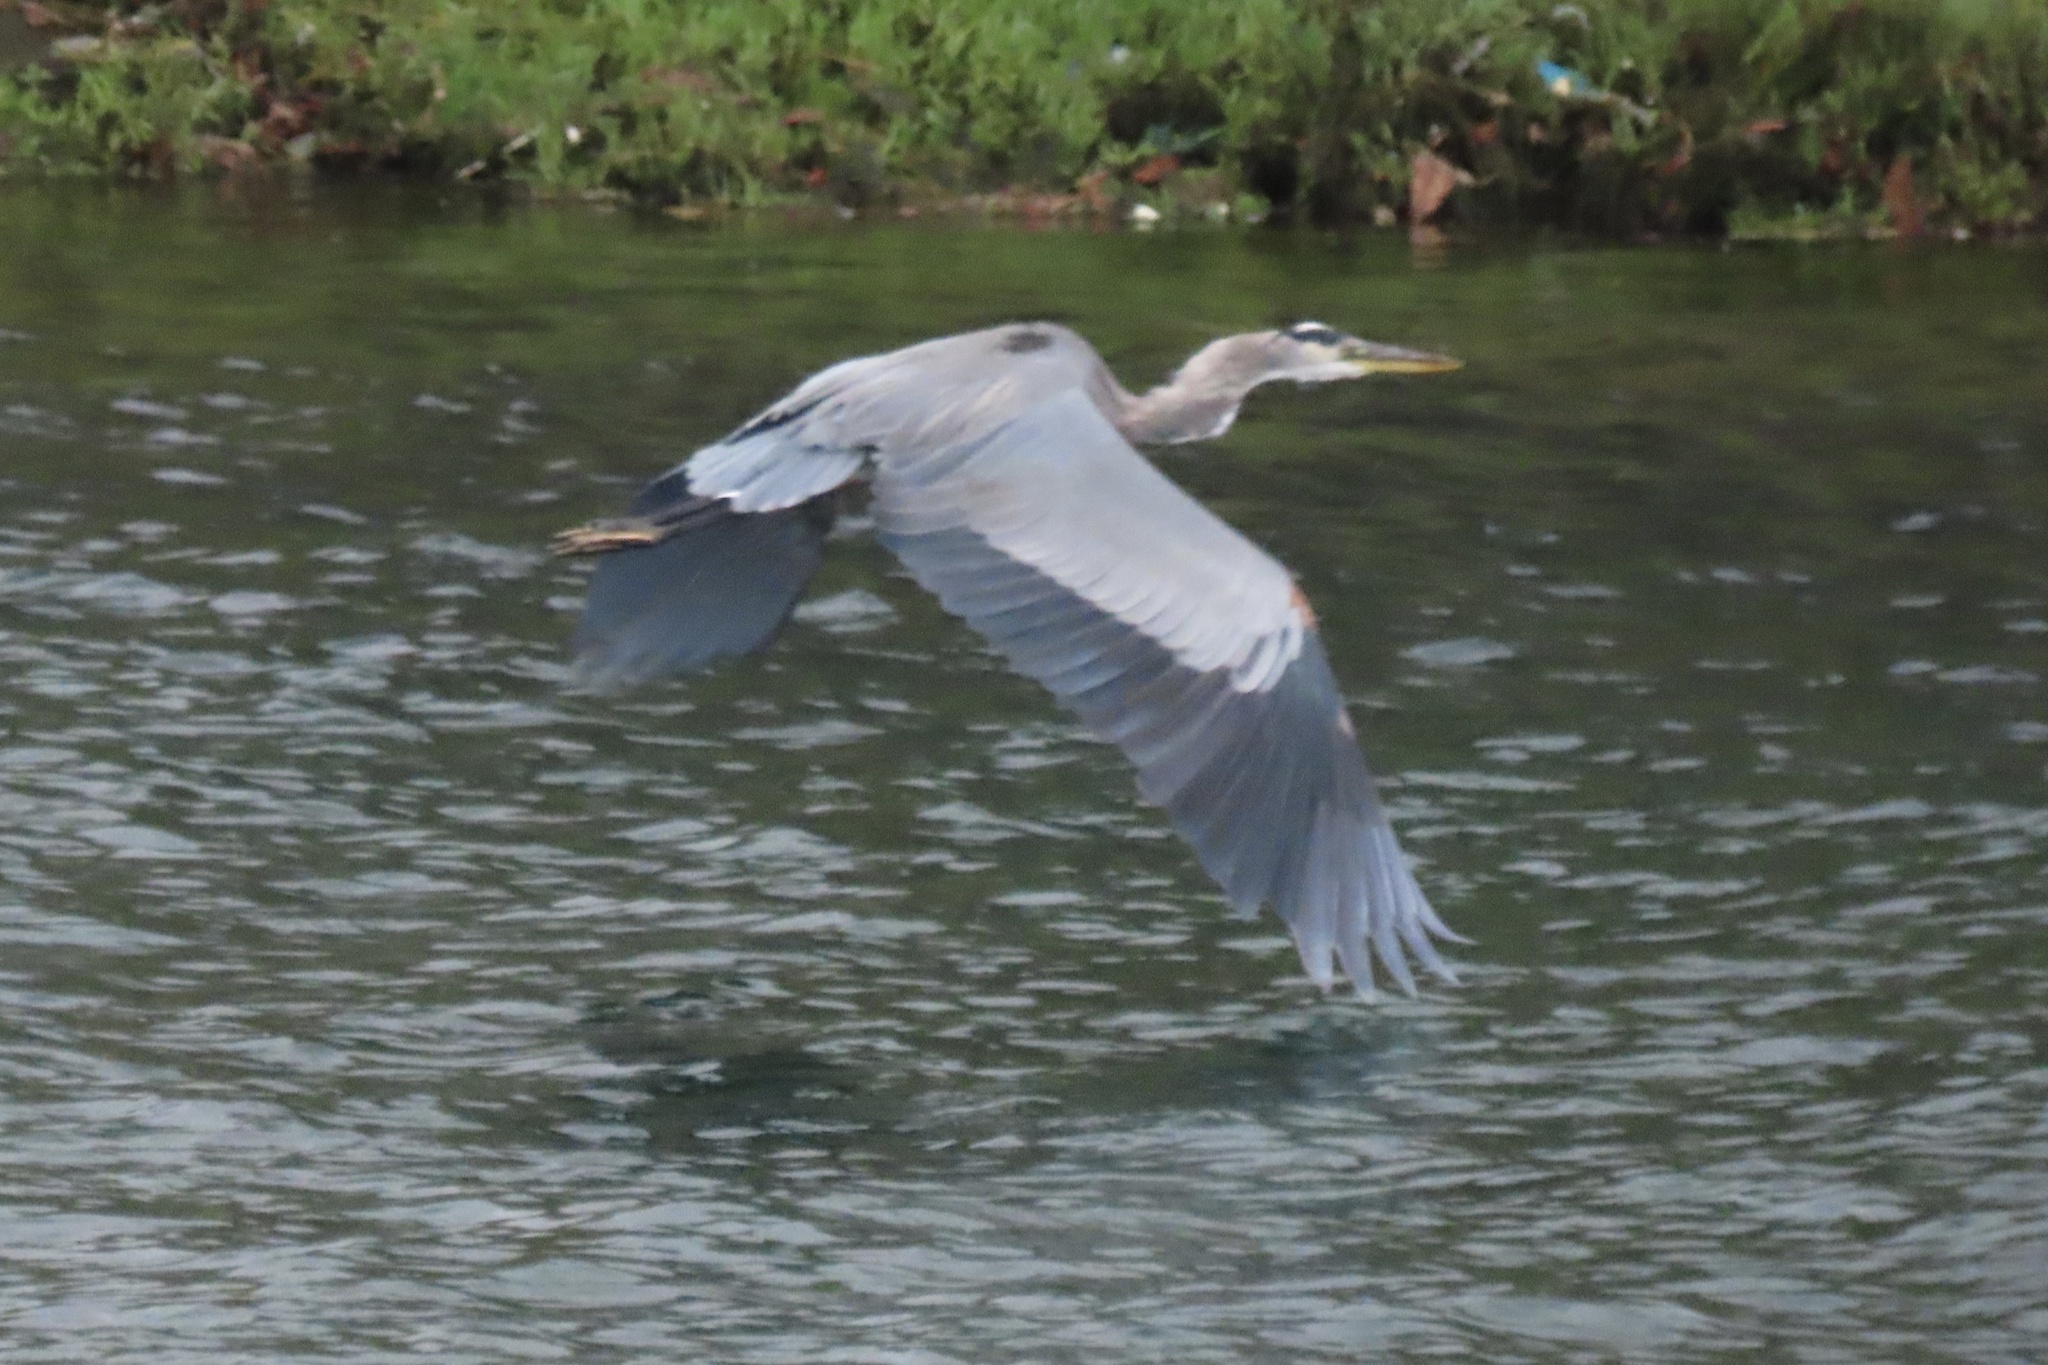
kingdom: Animalia
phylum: Chordata
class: Aves
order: Pelecaniformes
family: Ardeidae
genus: Ardea
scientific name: Ardea herodias
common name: Great blue heron
